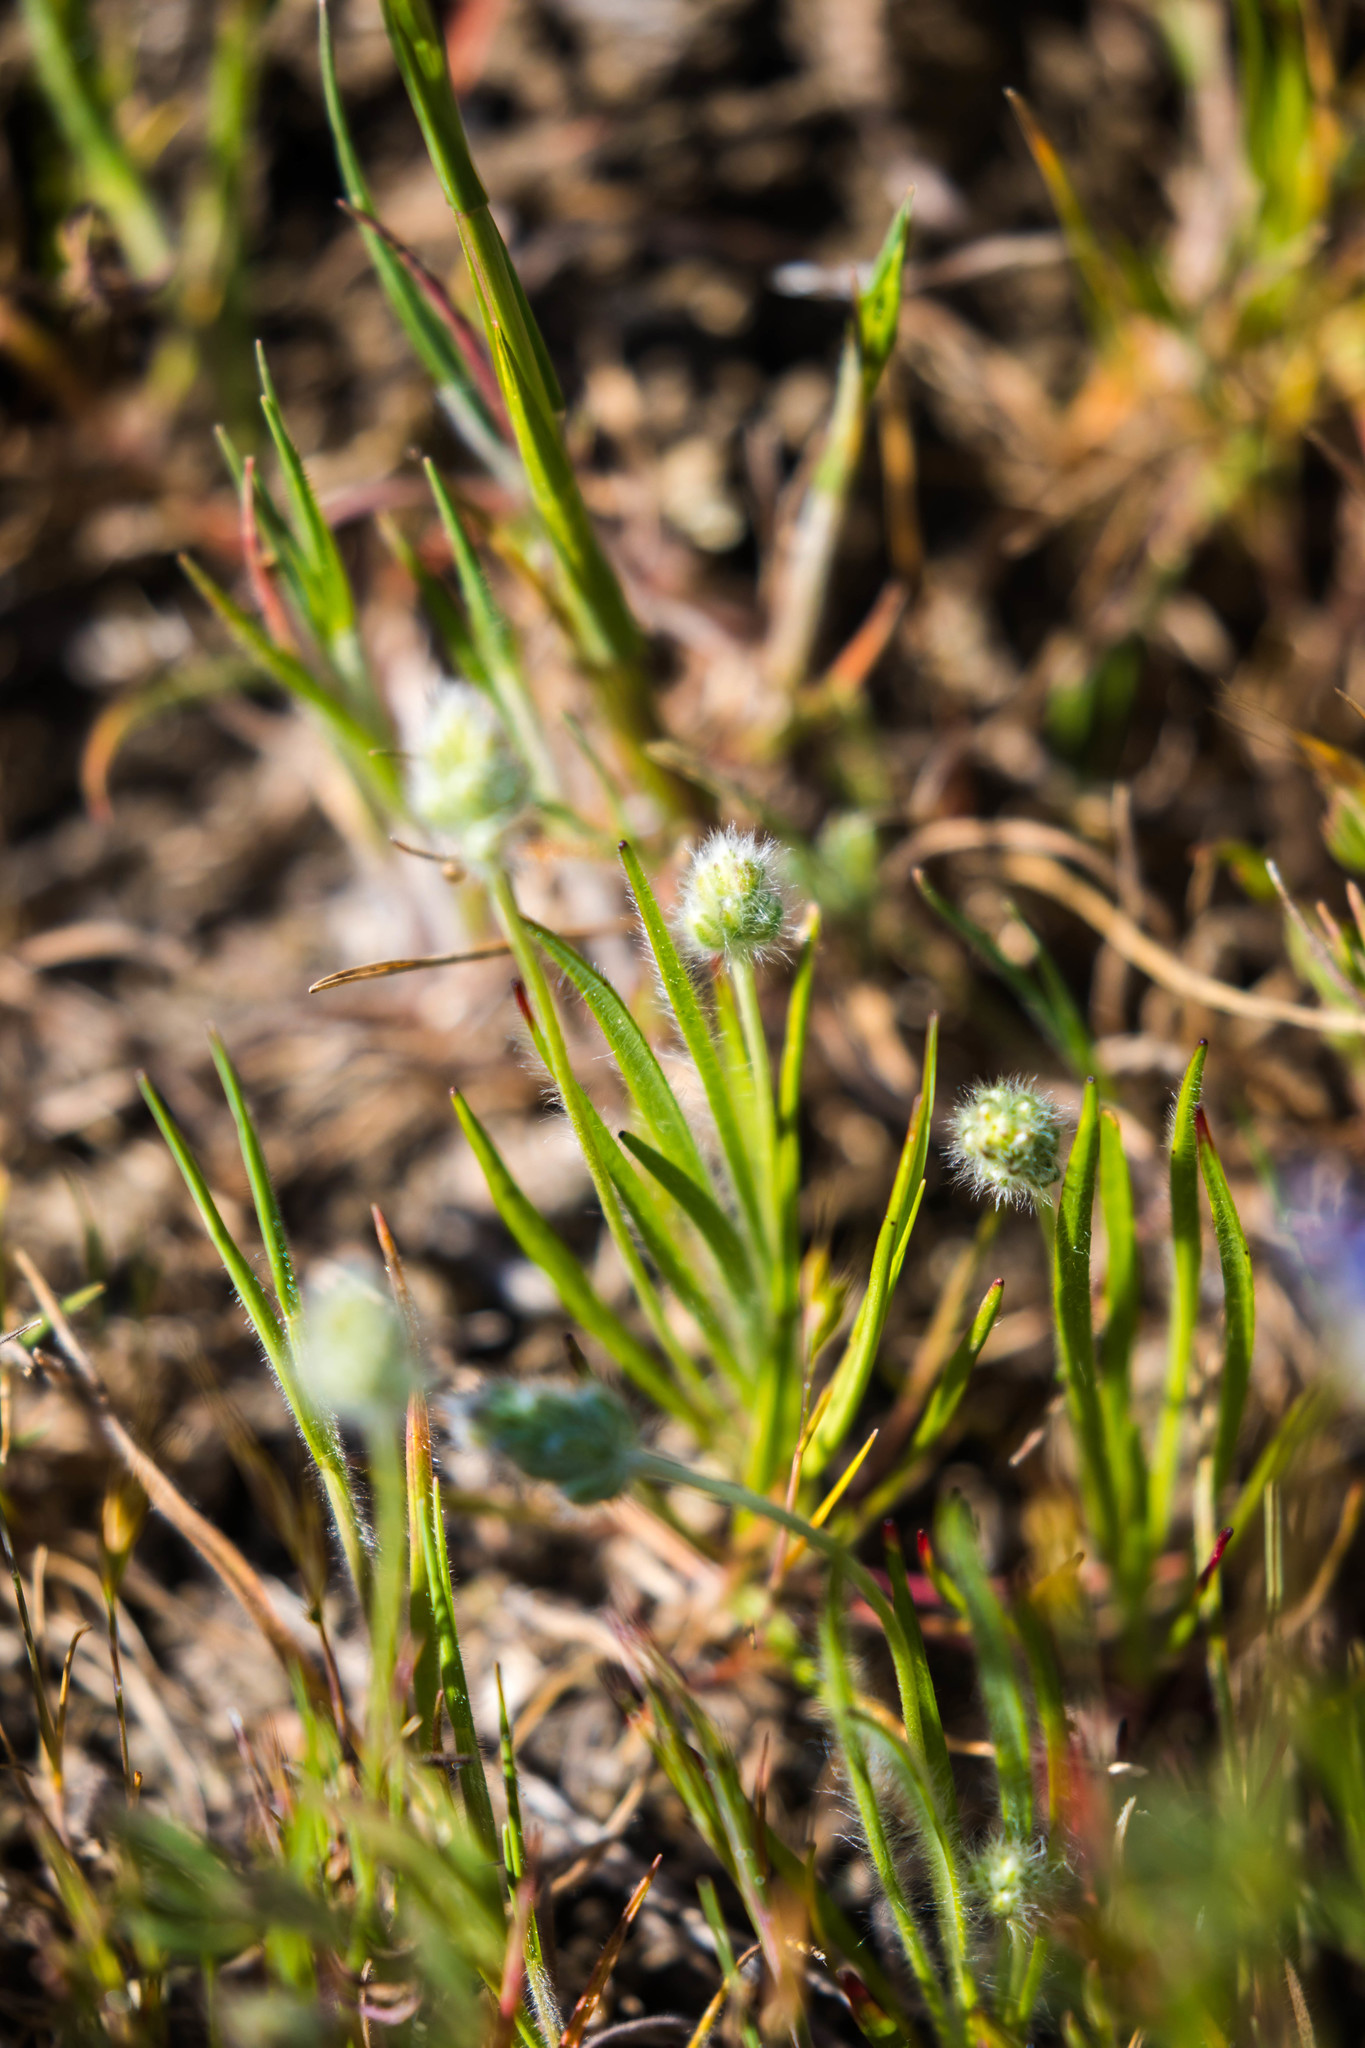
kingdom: Plantae
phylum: Tracheophyta
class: Magnoliopsida
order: Lamiales
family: Plantaginaceae
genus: Plantago
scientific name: Plantago erecta
